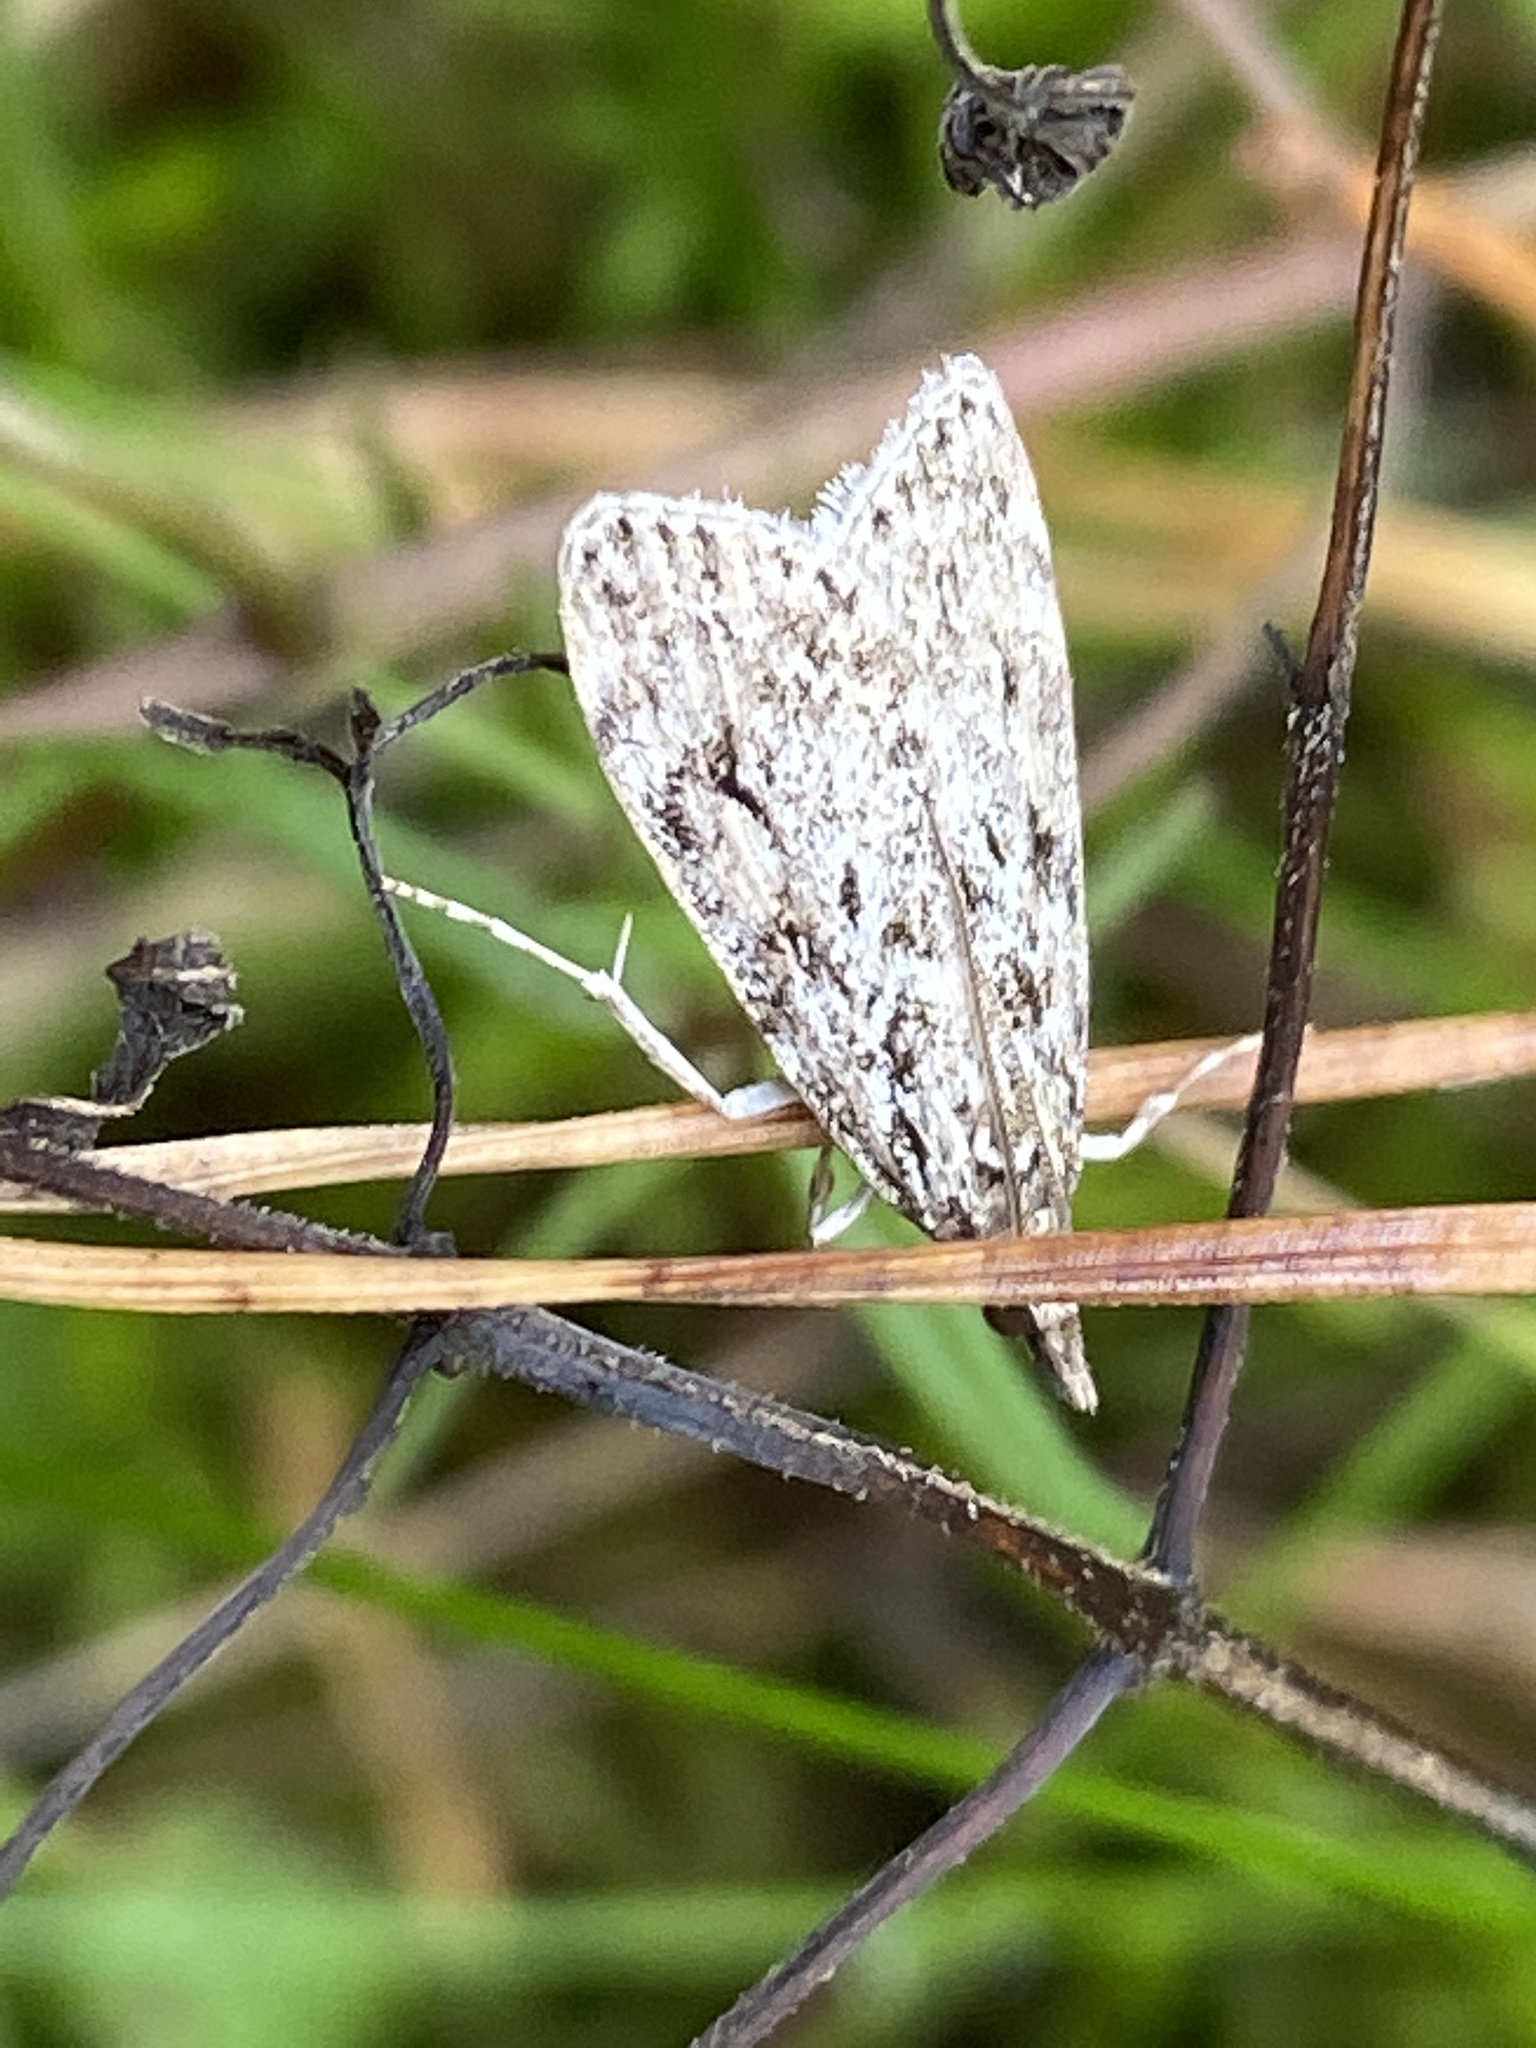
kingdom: Animalia
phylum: Arthropoda
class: Insecta
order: Lepidoptera
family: Crambidae
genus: Eudonia
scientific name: Eudonia truncicolella
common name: Ground-moss grey
